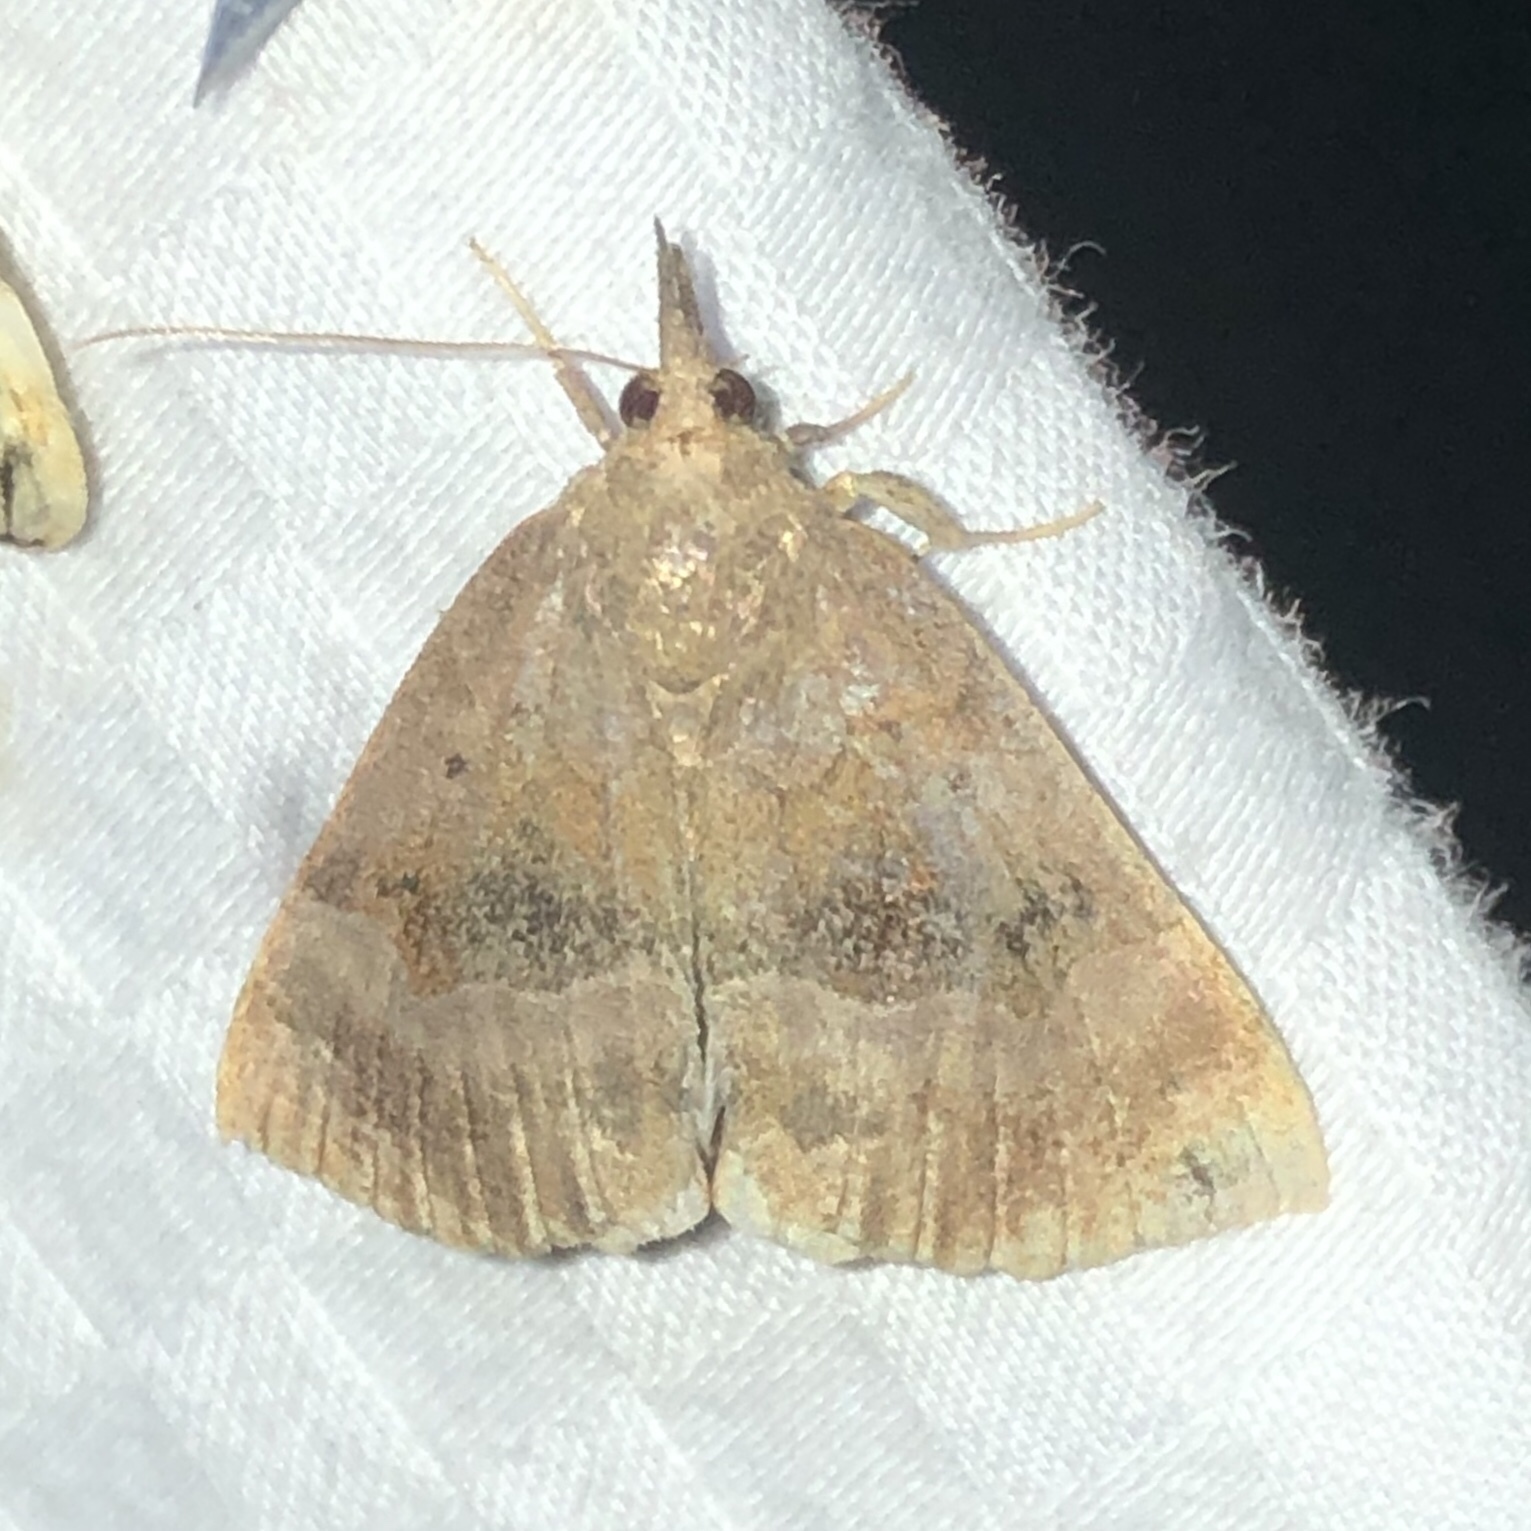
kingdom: Animalia
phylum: Arthropoda
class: Insecta
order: Lepidoptera
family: Erebidae
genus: Hypena
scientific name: Hypena madefactalis
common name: Gray-edged snout
